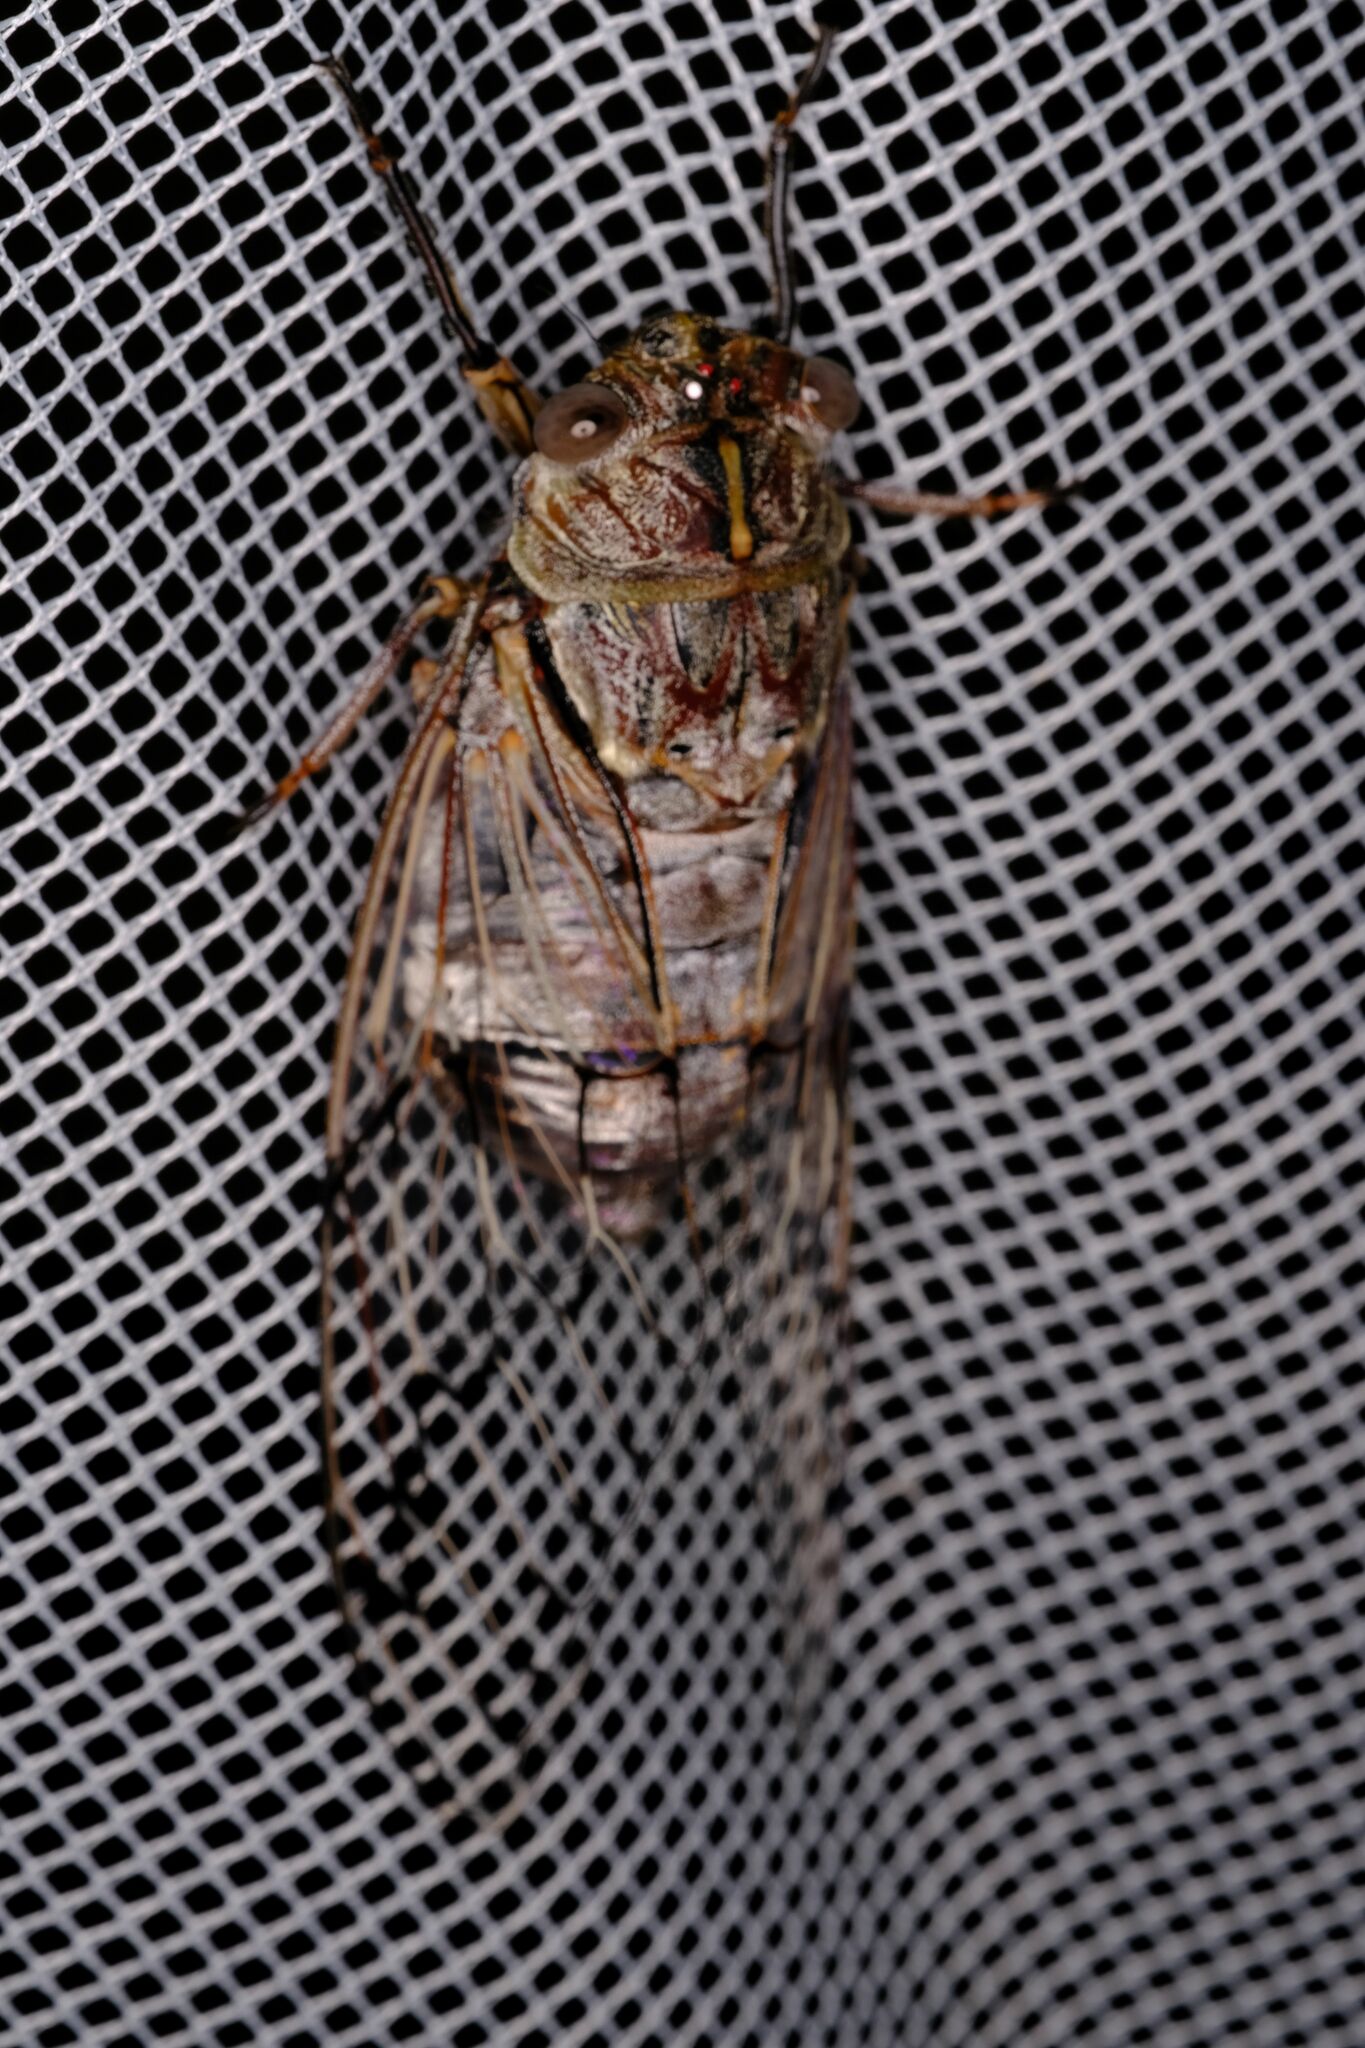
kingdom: Animalia
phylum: Arthropoda
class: Insecta
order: Hemiptera
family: Cicadidae
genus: Henicopsaltria
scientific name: Henicopsaltria eydouxii
